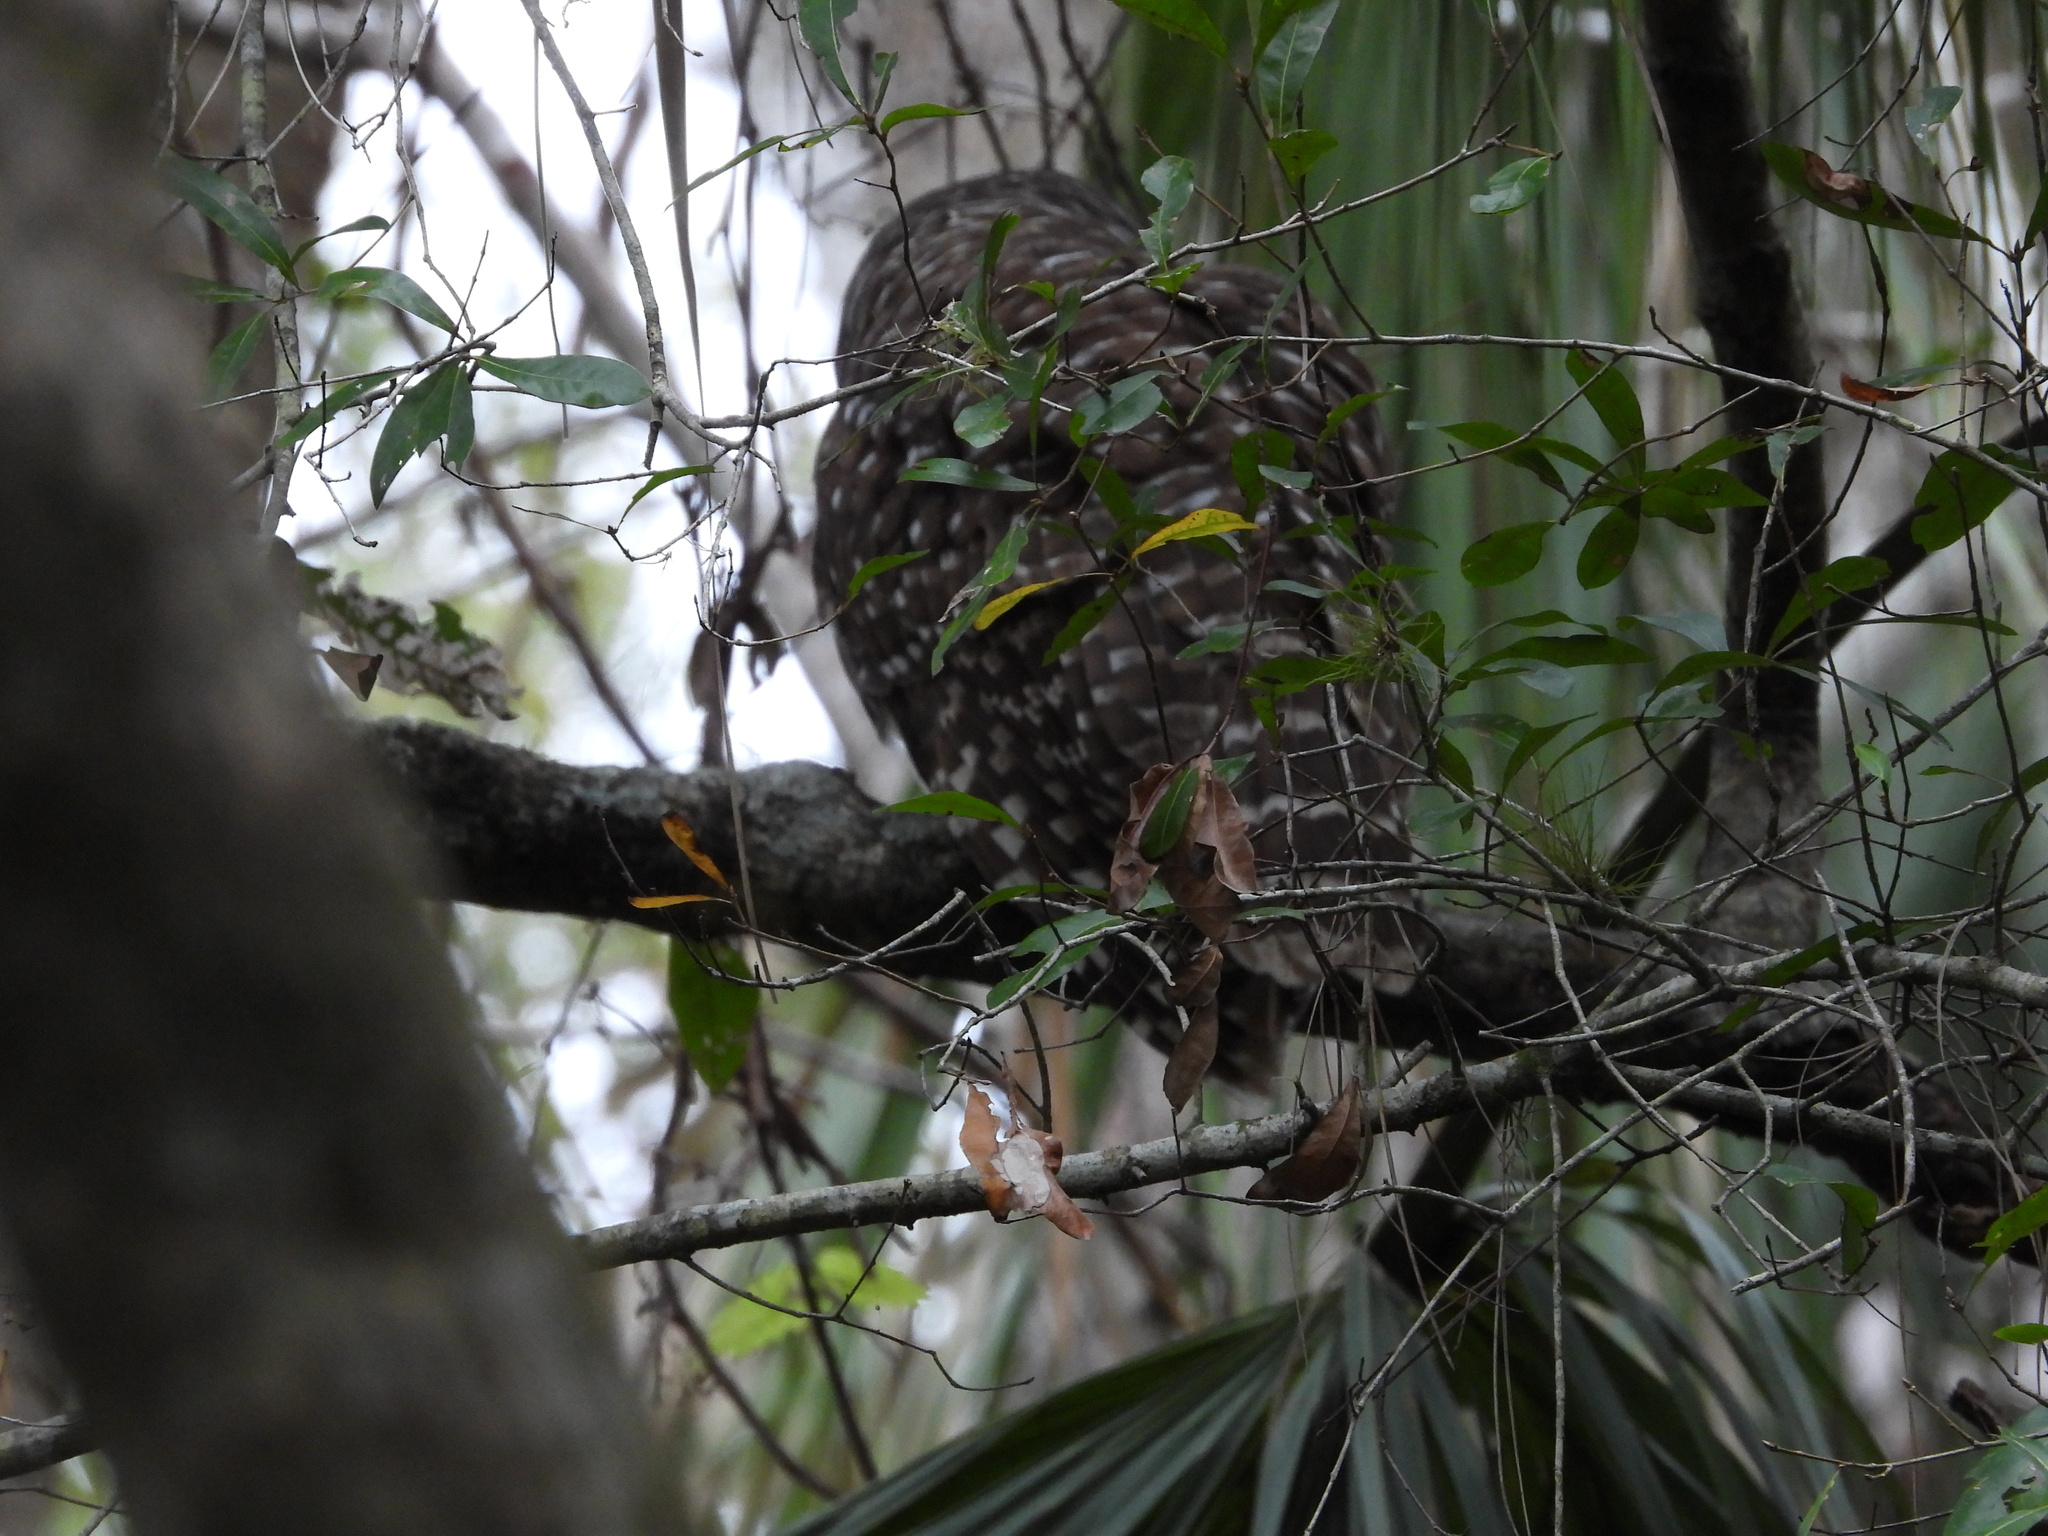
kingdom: Animalia
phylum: Chordata
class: Aves
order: Strigiformes
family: Strigidae
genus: Strix
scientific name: Strix varia
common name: Barred owl
